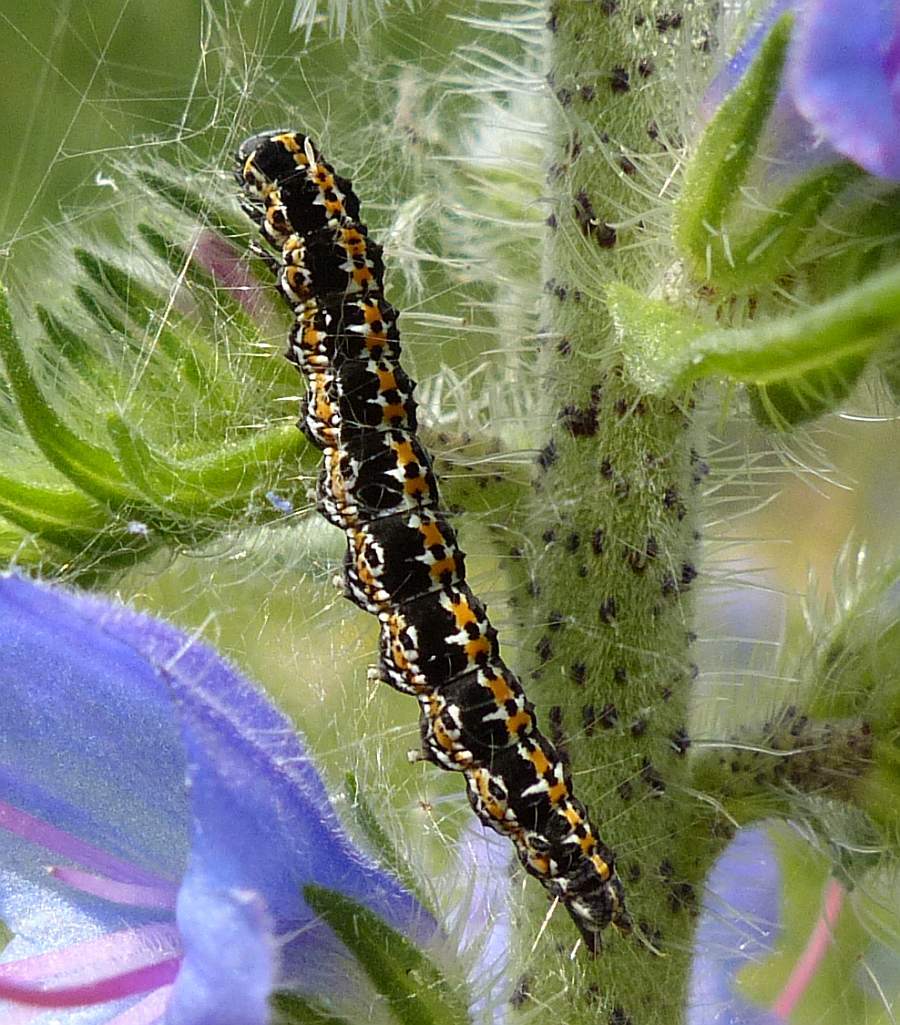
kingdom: Animalia
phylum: Arthropoda
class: Insecta
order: Lepidoptera
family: Ethmiidae
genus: Ethmia
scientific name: Ethmia bipunctella
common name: Bordered ermel
